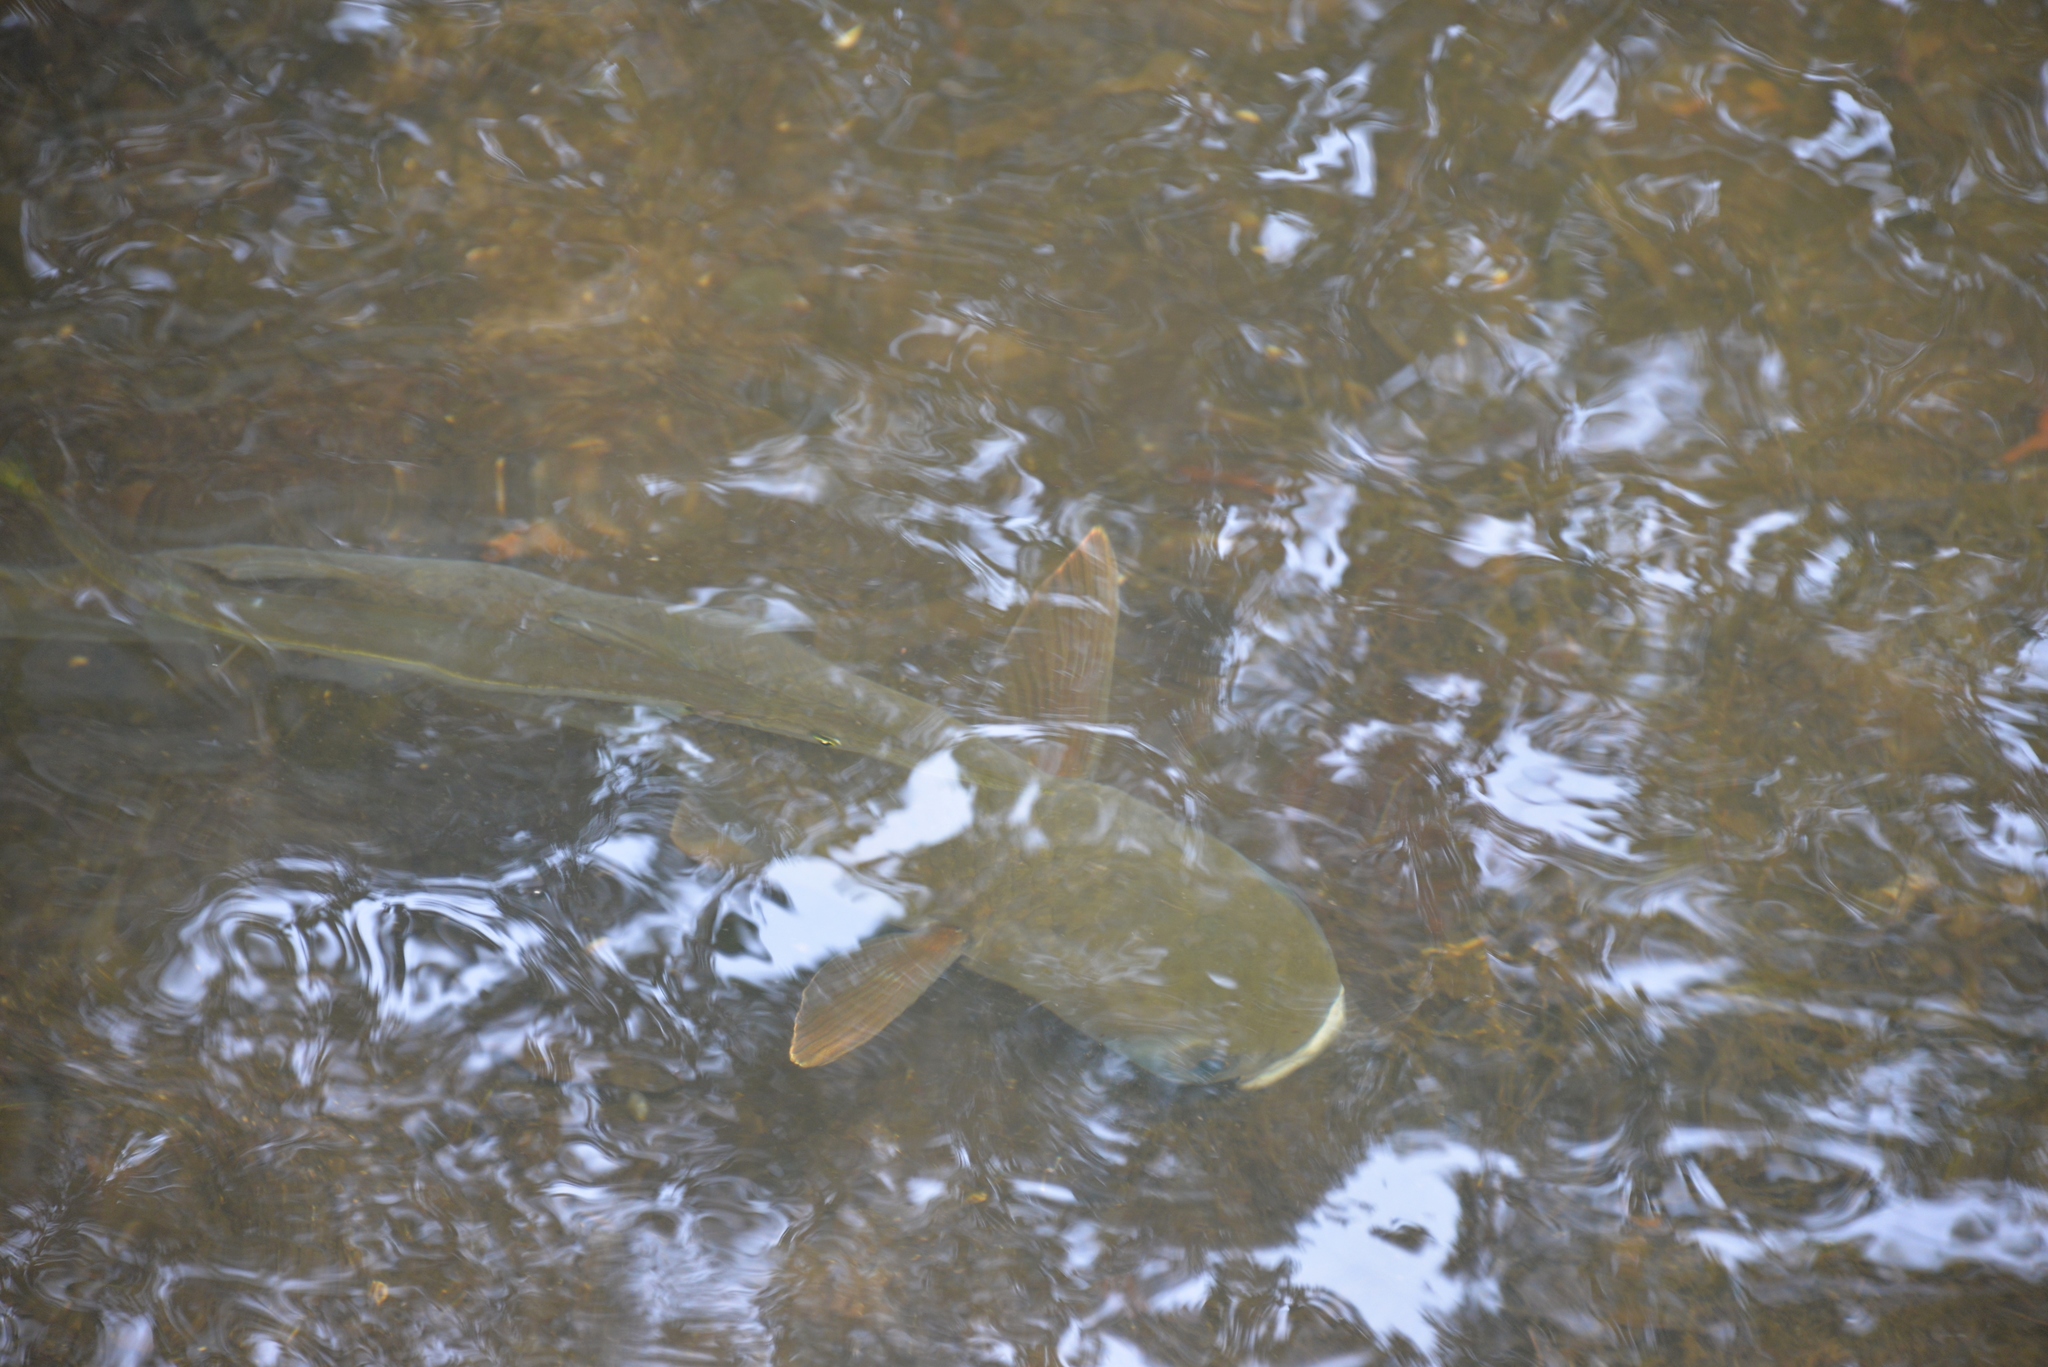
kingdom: Animalia
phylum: Chordata
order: Mugiliformes
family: Mugilidae
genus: Mugil
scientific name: Mugil cephalus
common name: Grey mullet
